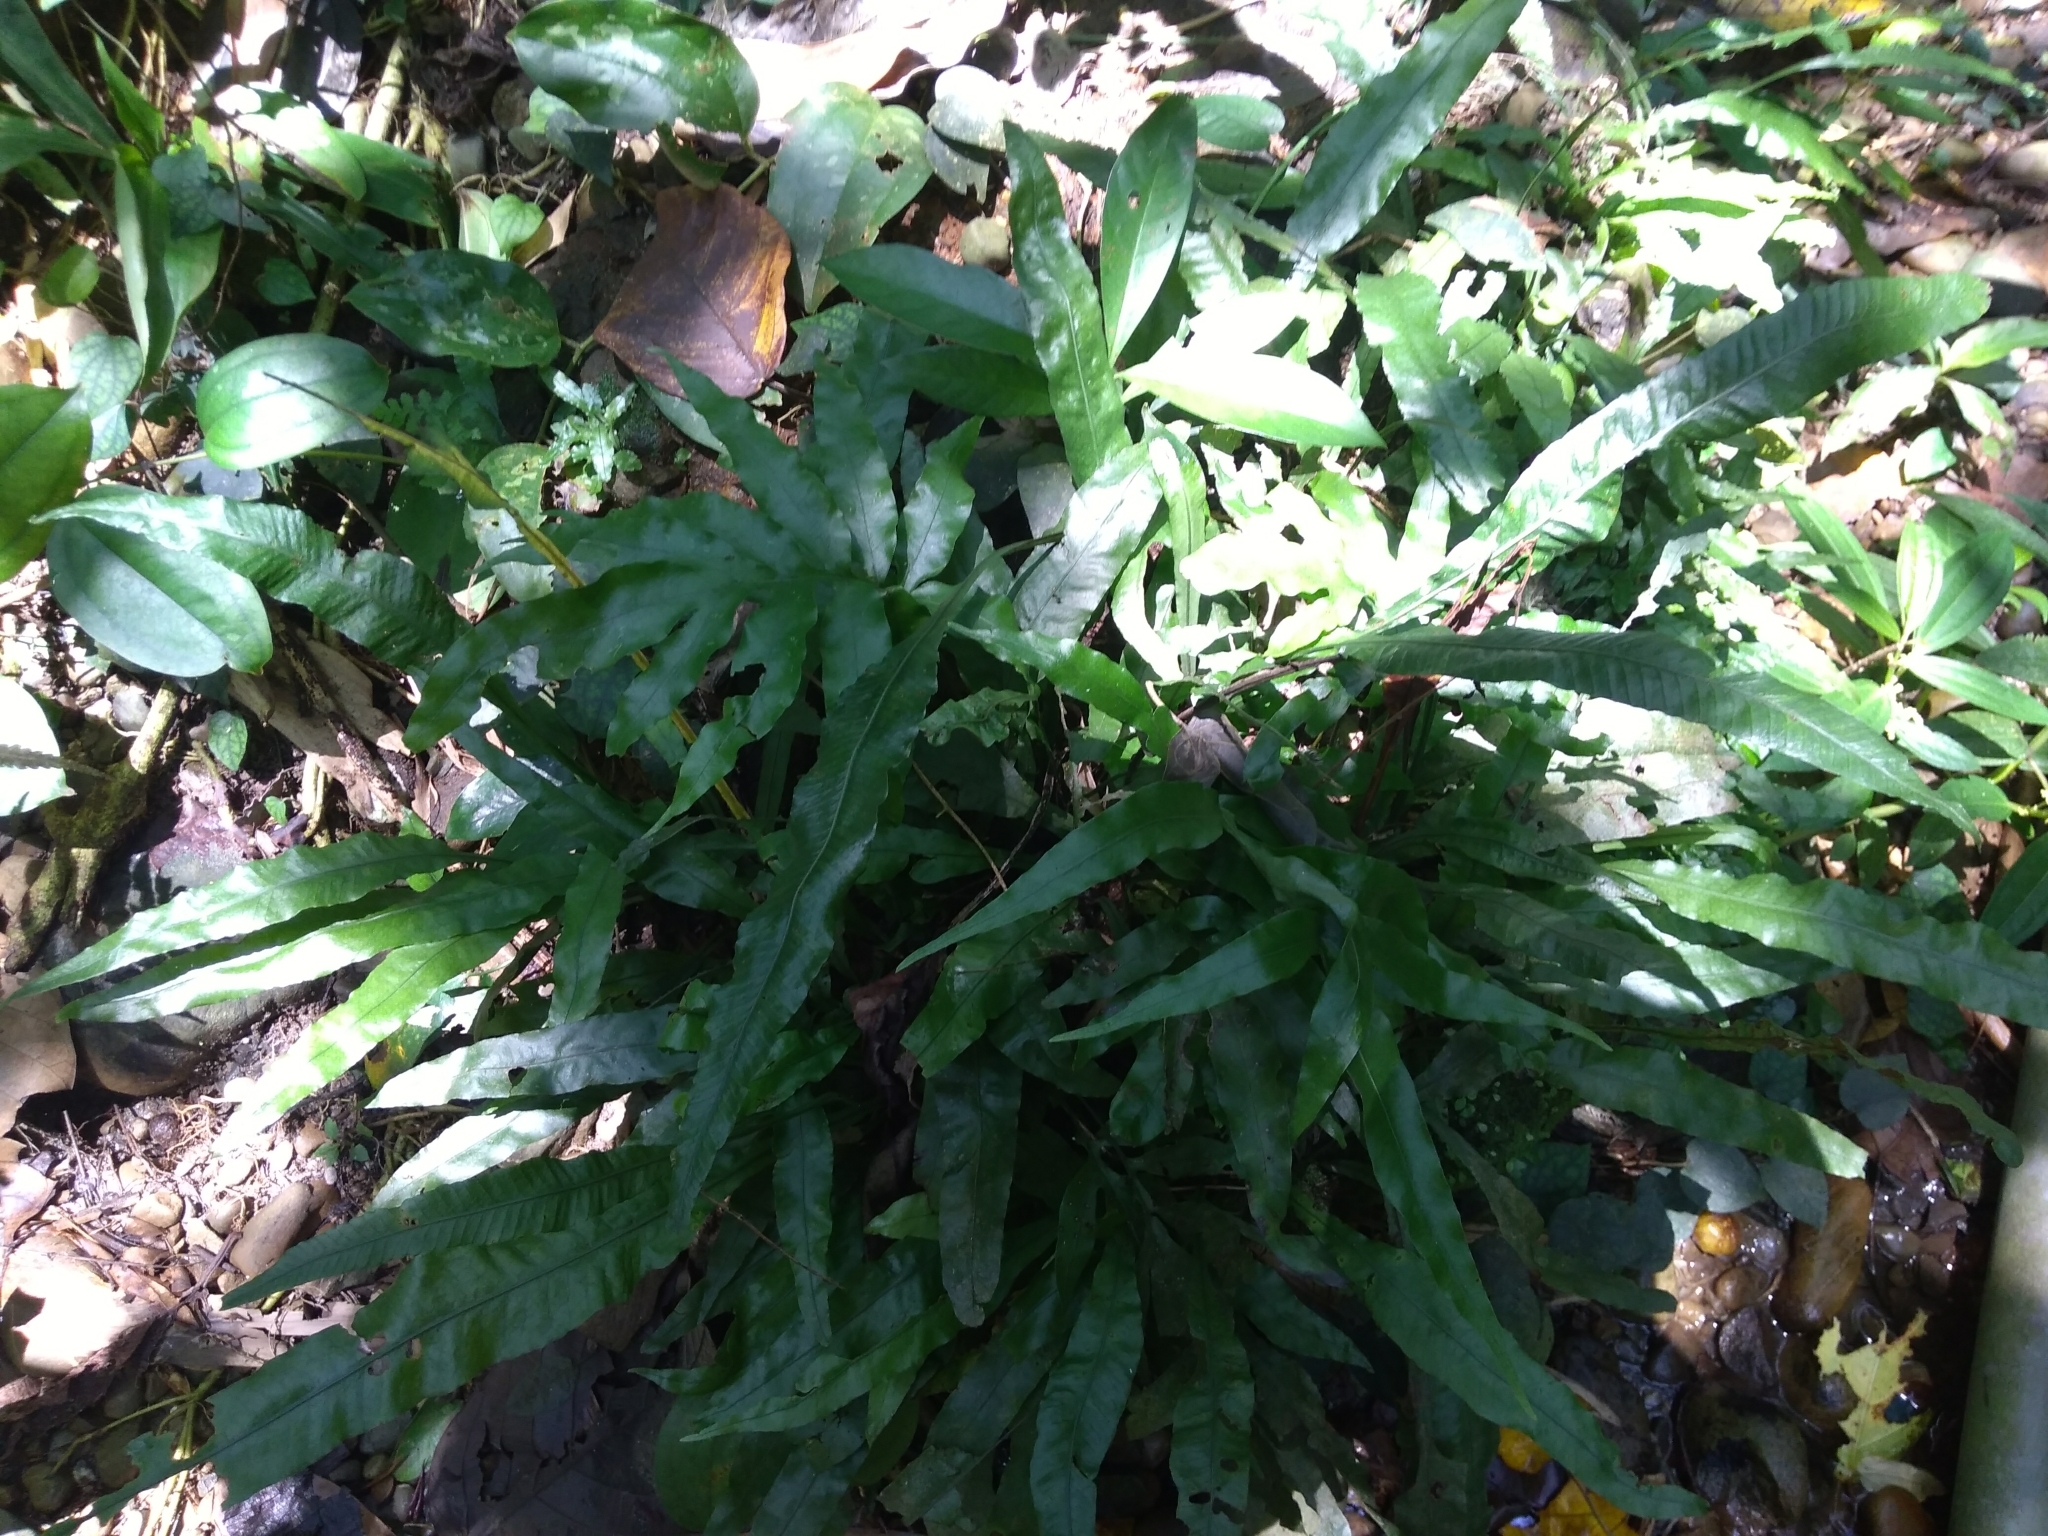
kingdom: Plantae
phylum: Tracheophyta
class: Polypodiopsida
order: Polypodiales
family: Polypodiaceae
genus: Leptochilus
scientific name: Leptochilus wrightii
